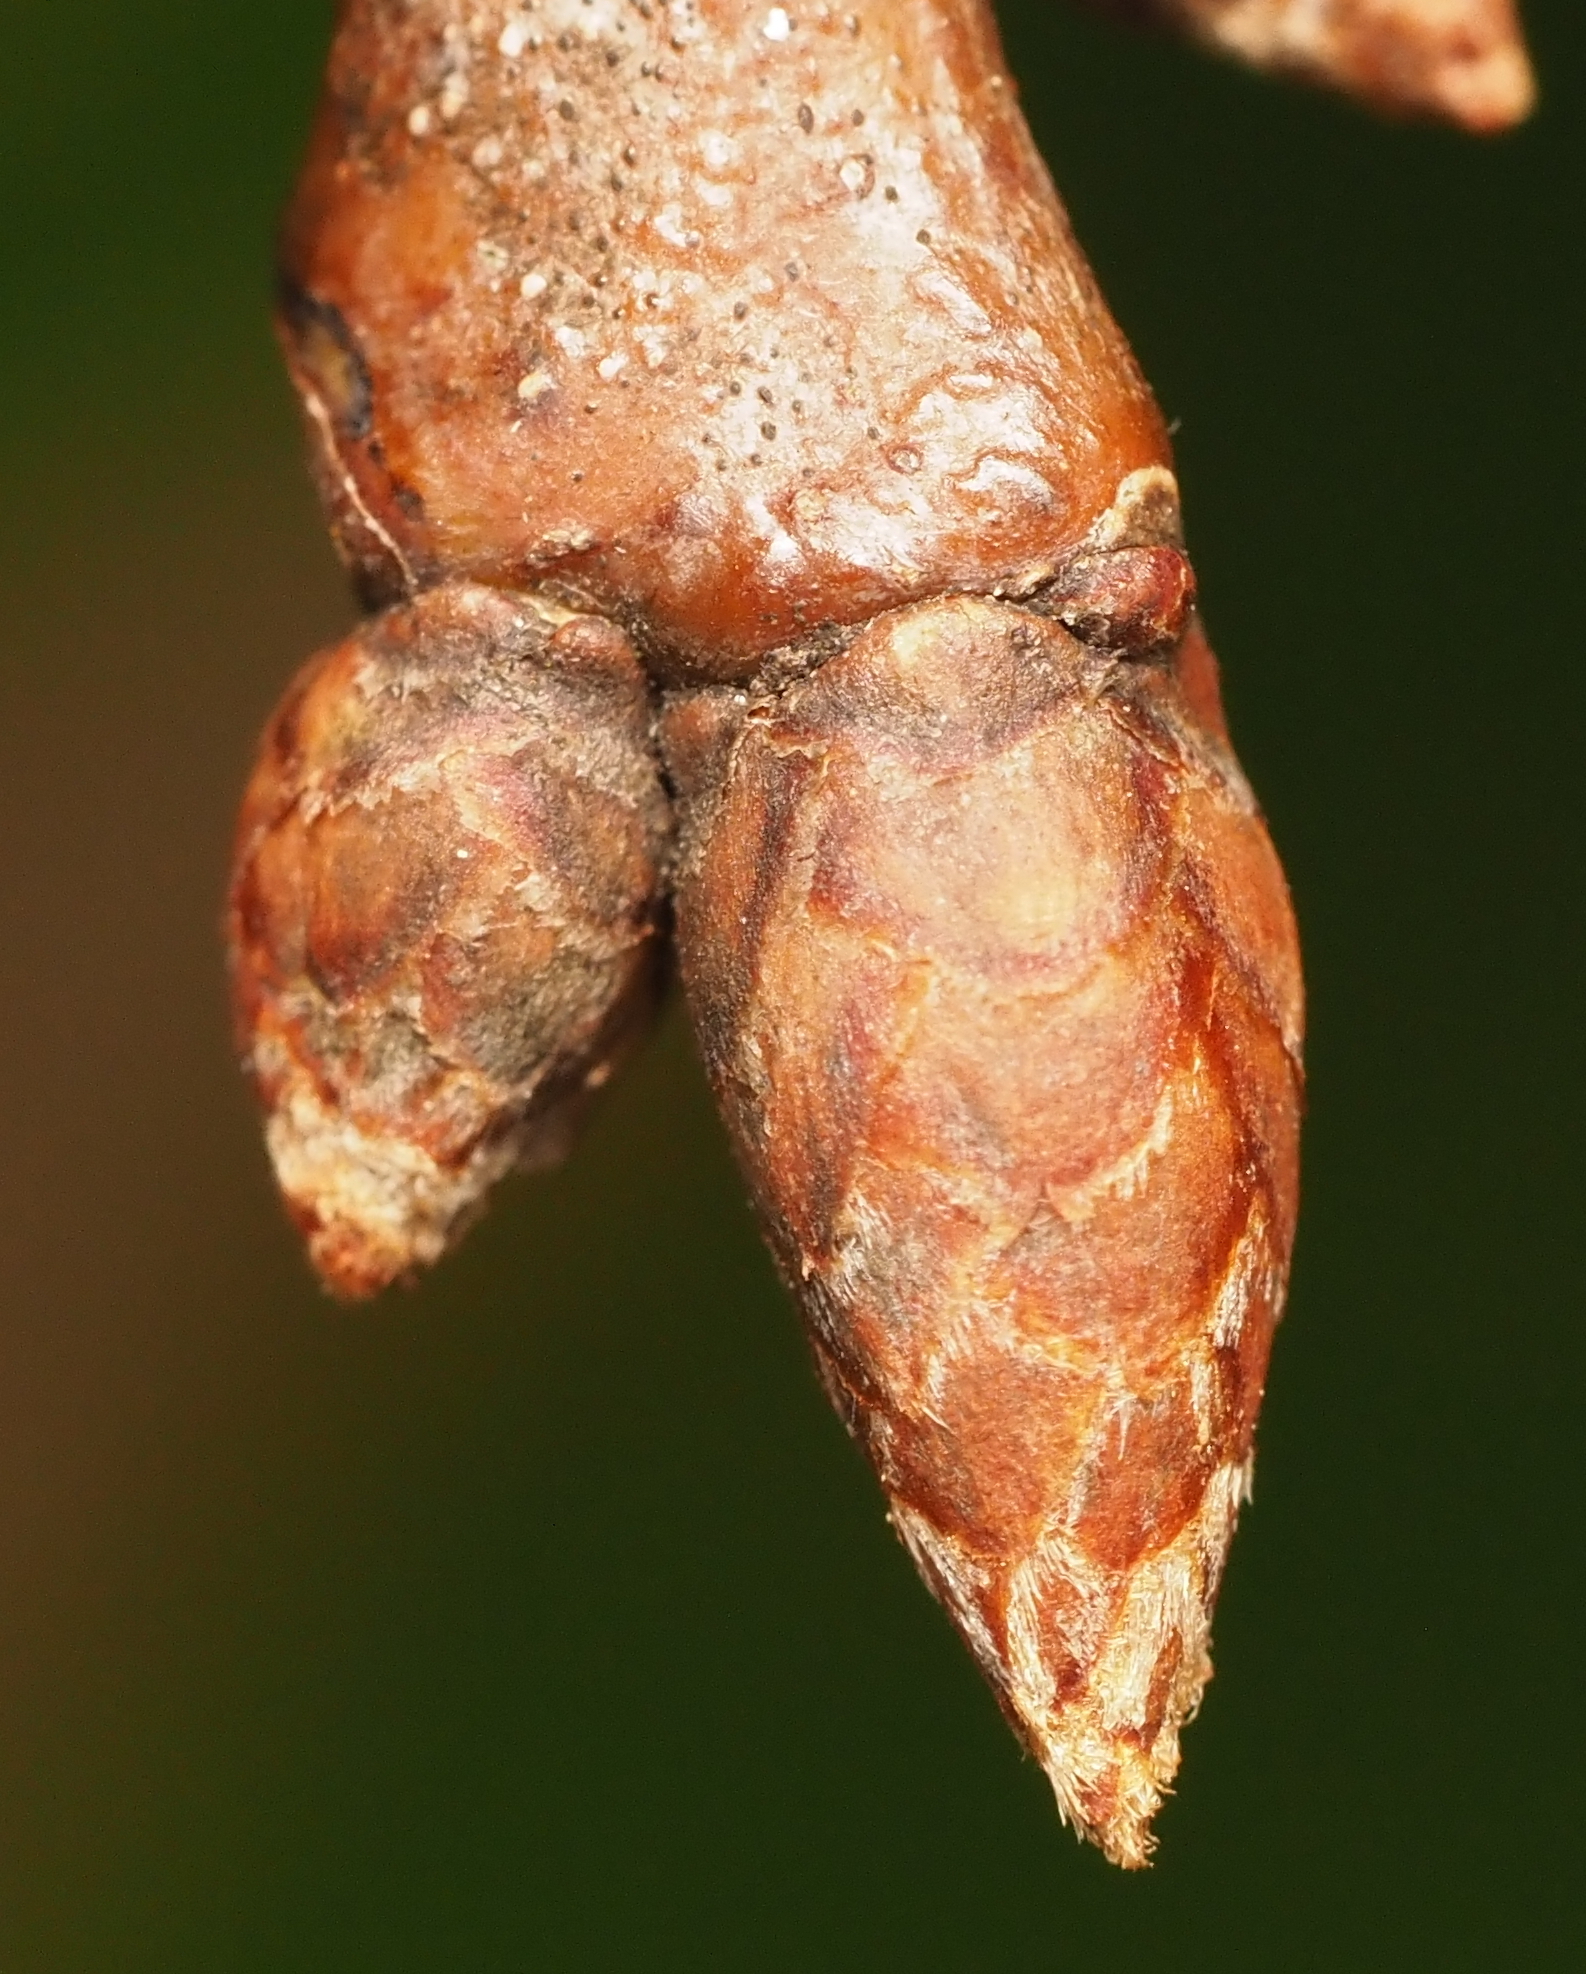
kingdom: Plantae
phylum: Tracheophyta
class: Magnoliopsida
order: Fagales
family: Fagaceae
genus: Quercus
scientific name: Quercus rubra
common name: Red oak
